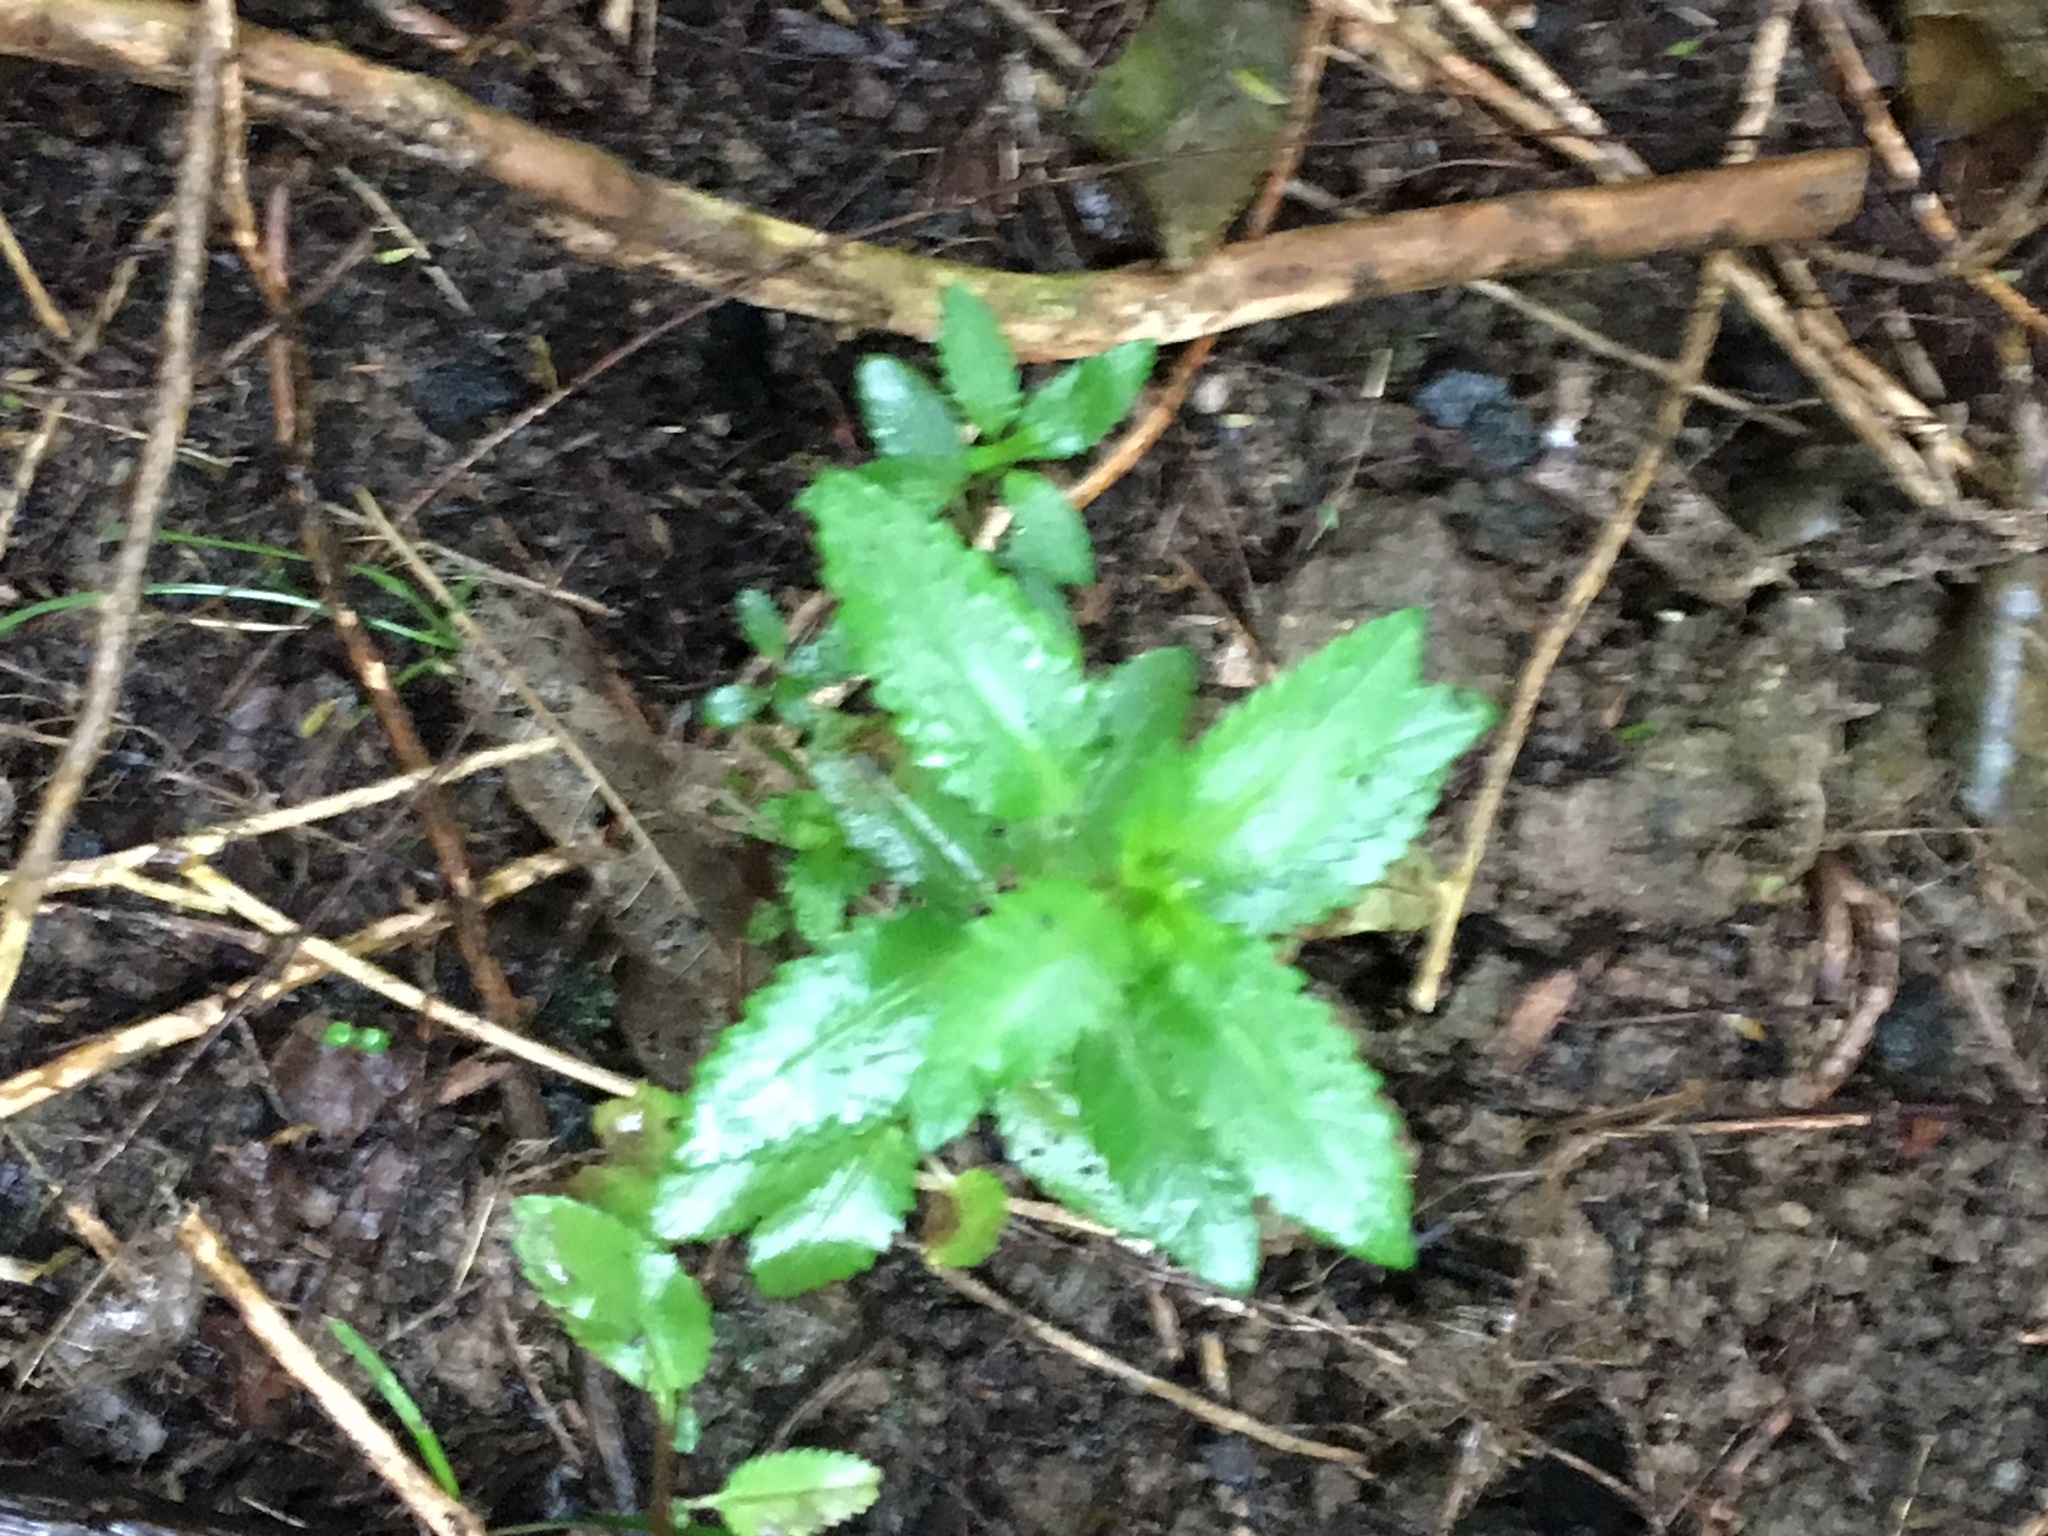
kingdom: Plantae
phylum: Tracheophyta
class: Magnoliopsida
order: Saxifragales
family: Haloragaceae
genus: Haloragis
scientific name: Haloragis erecta
